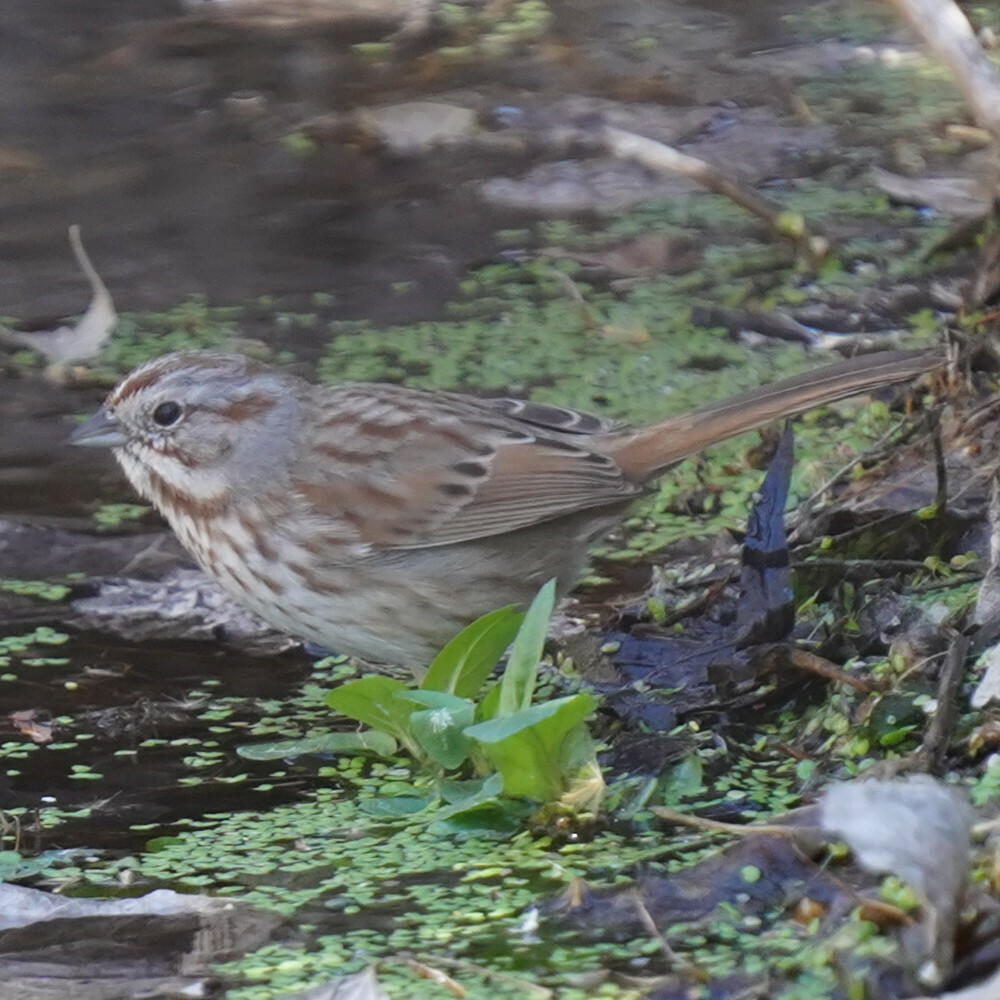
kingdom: Animalia
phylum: Chordata
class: Aves
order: Passeriformes
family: Passerellidae
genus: Melospiza
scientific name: Melospiza melodia
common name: Song sparrow
